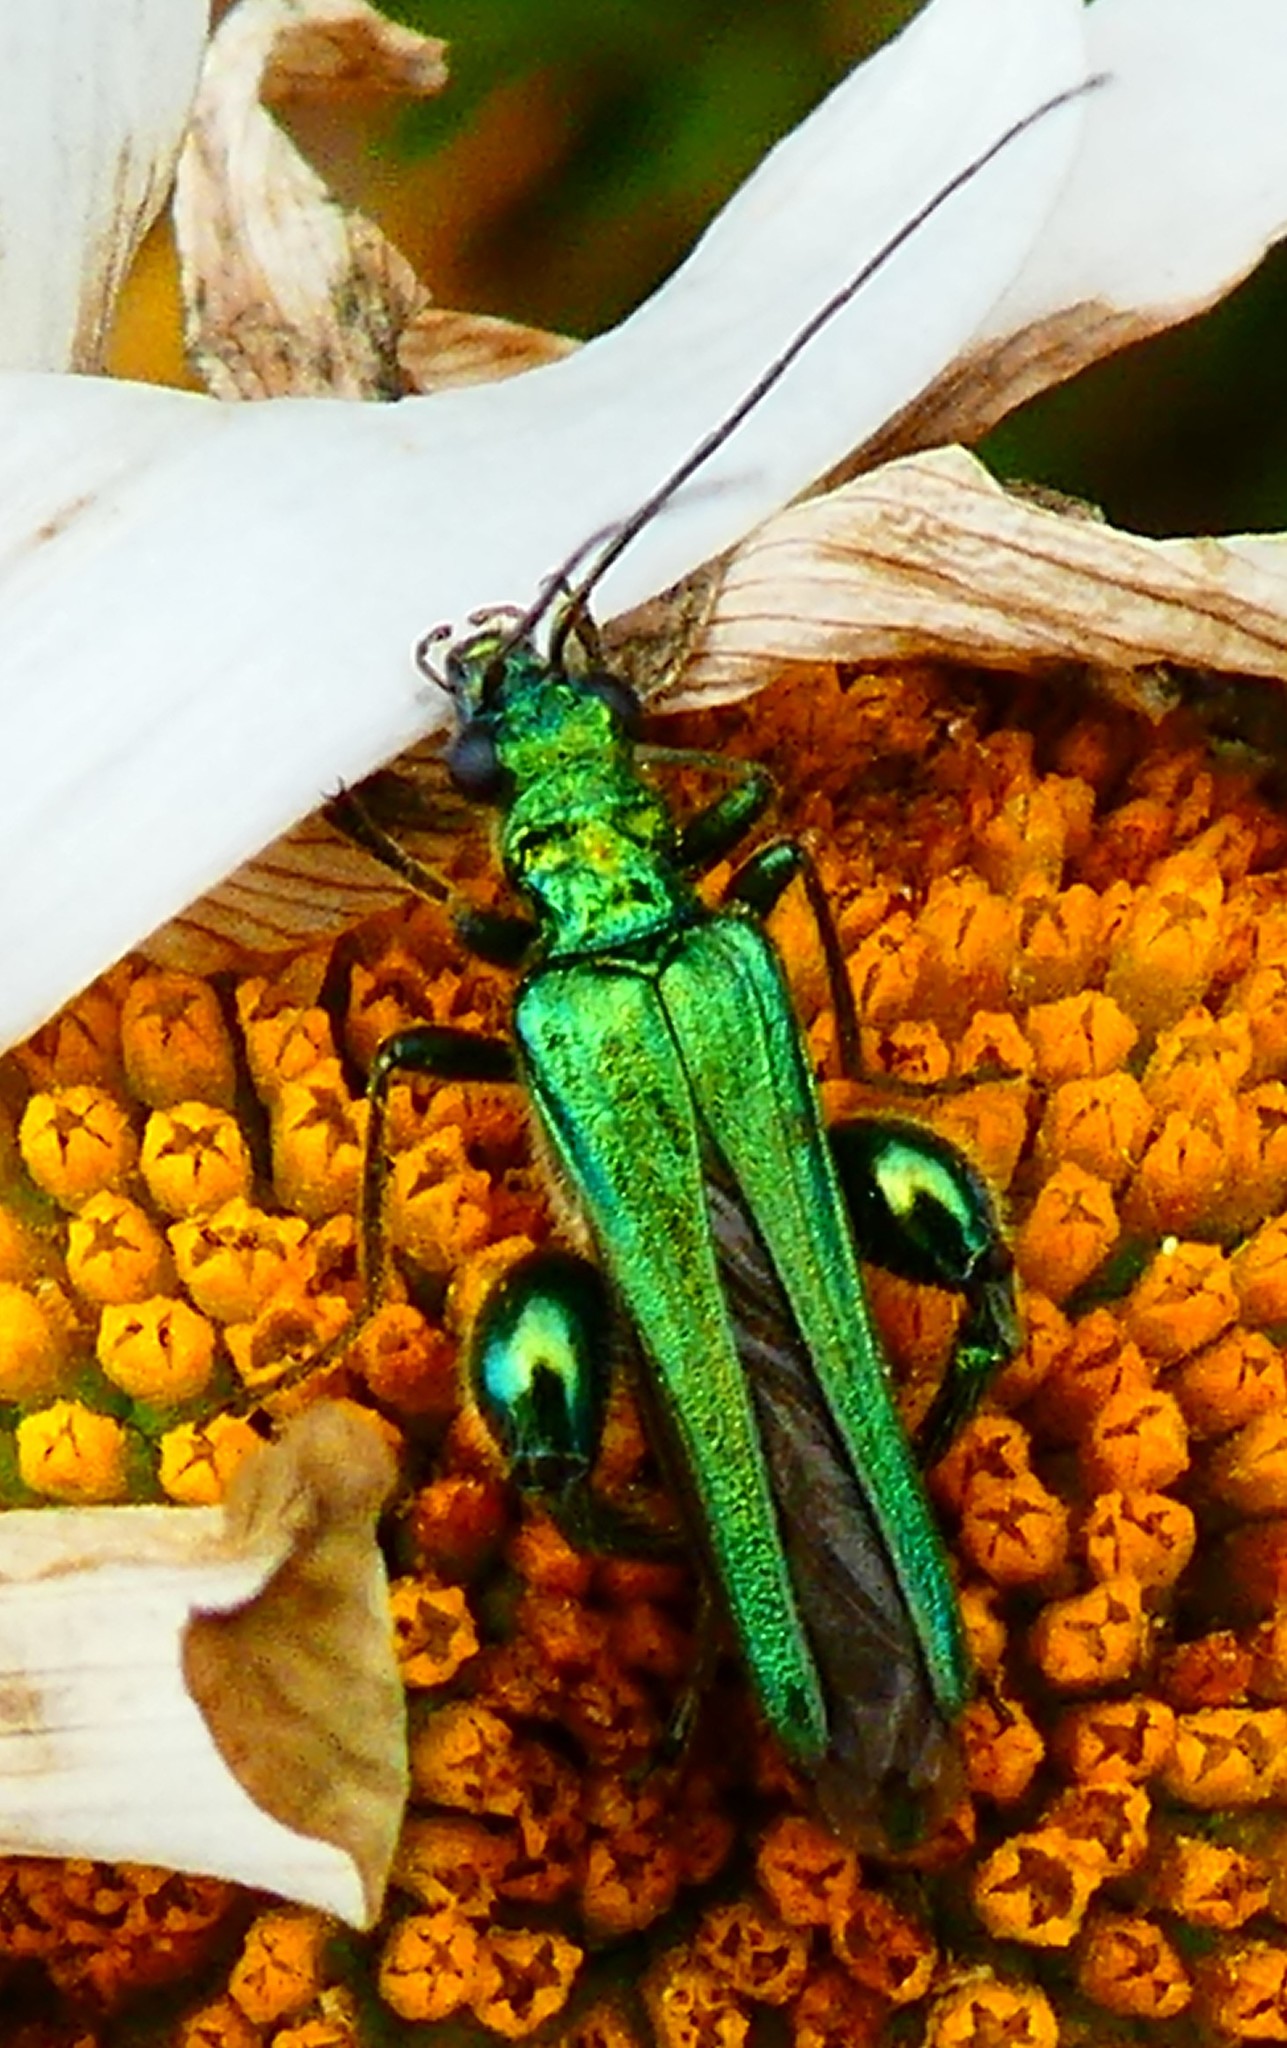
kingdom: Animalia
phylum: Arthropoda
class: Insecta
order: Coleoptera
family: Oedemeridae
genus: Oedemera
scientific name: Oedemera nobilis
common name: Swollen-thighed beetle
